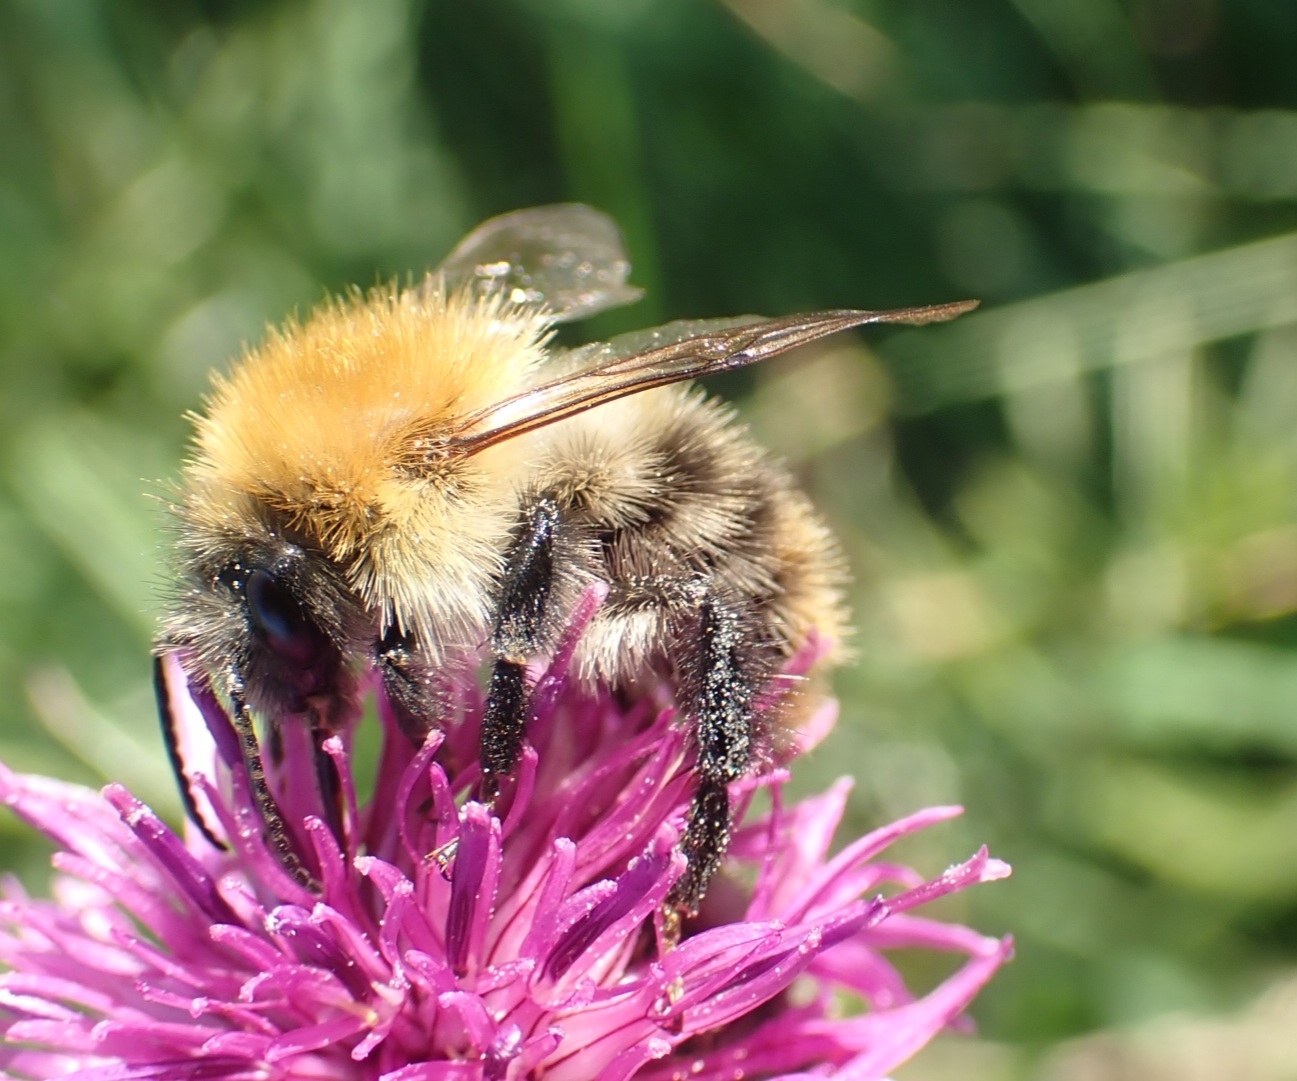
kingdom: Animalia
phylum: Arthropoda
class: Insecta
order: Hymenoptera
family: Apidae
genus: Bombus
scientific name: Bombus pascuorum
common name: Common carder bee
